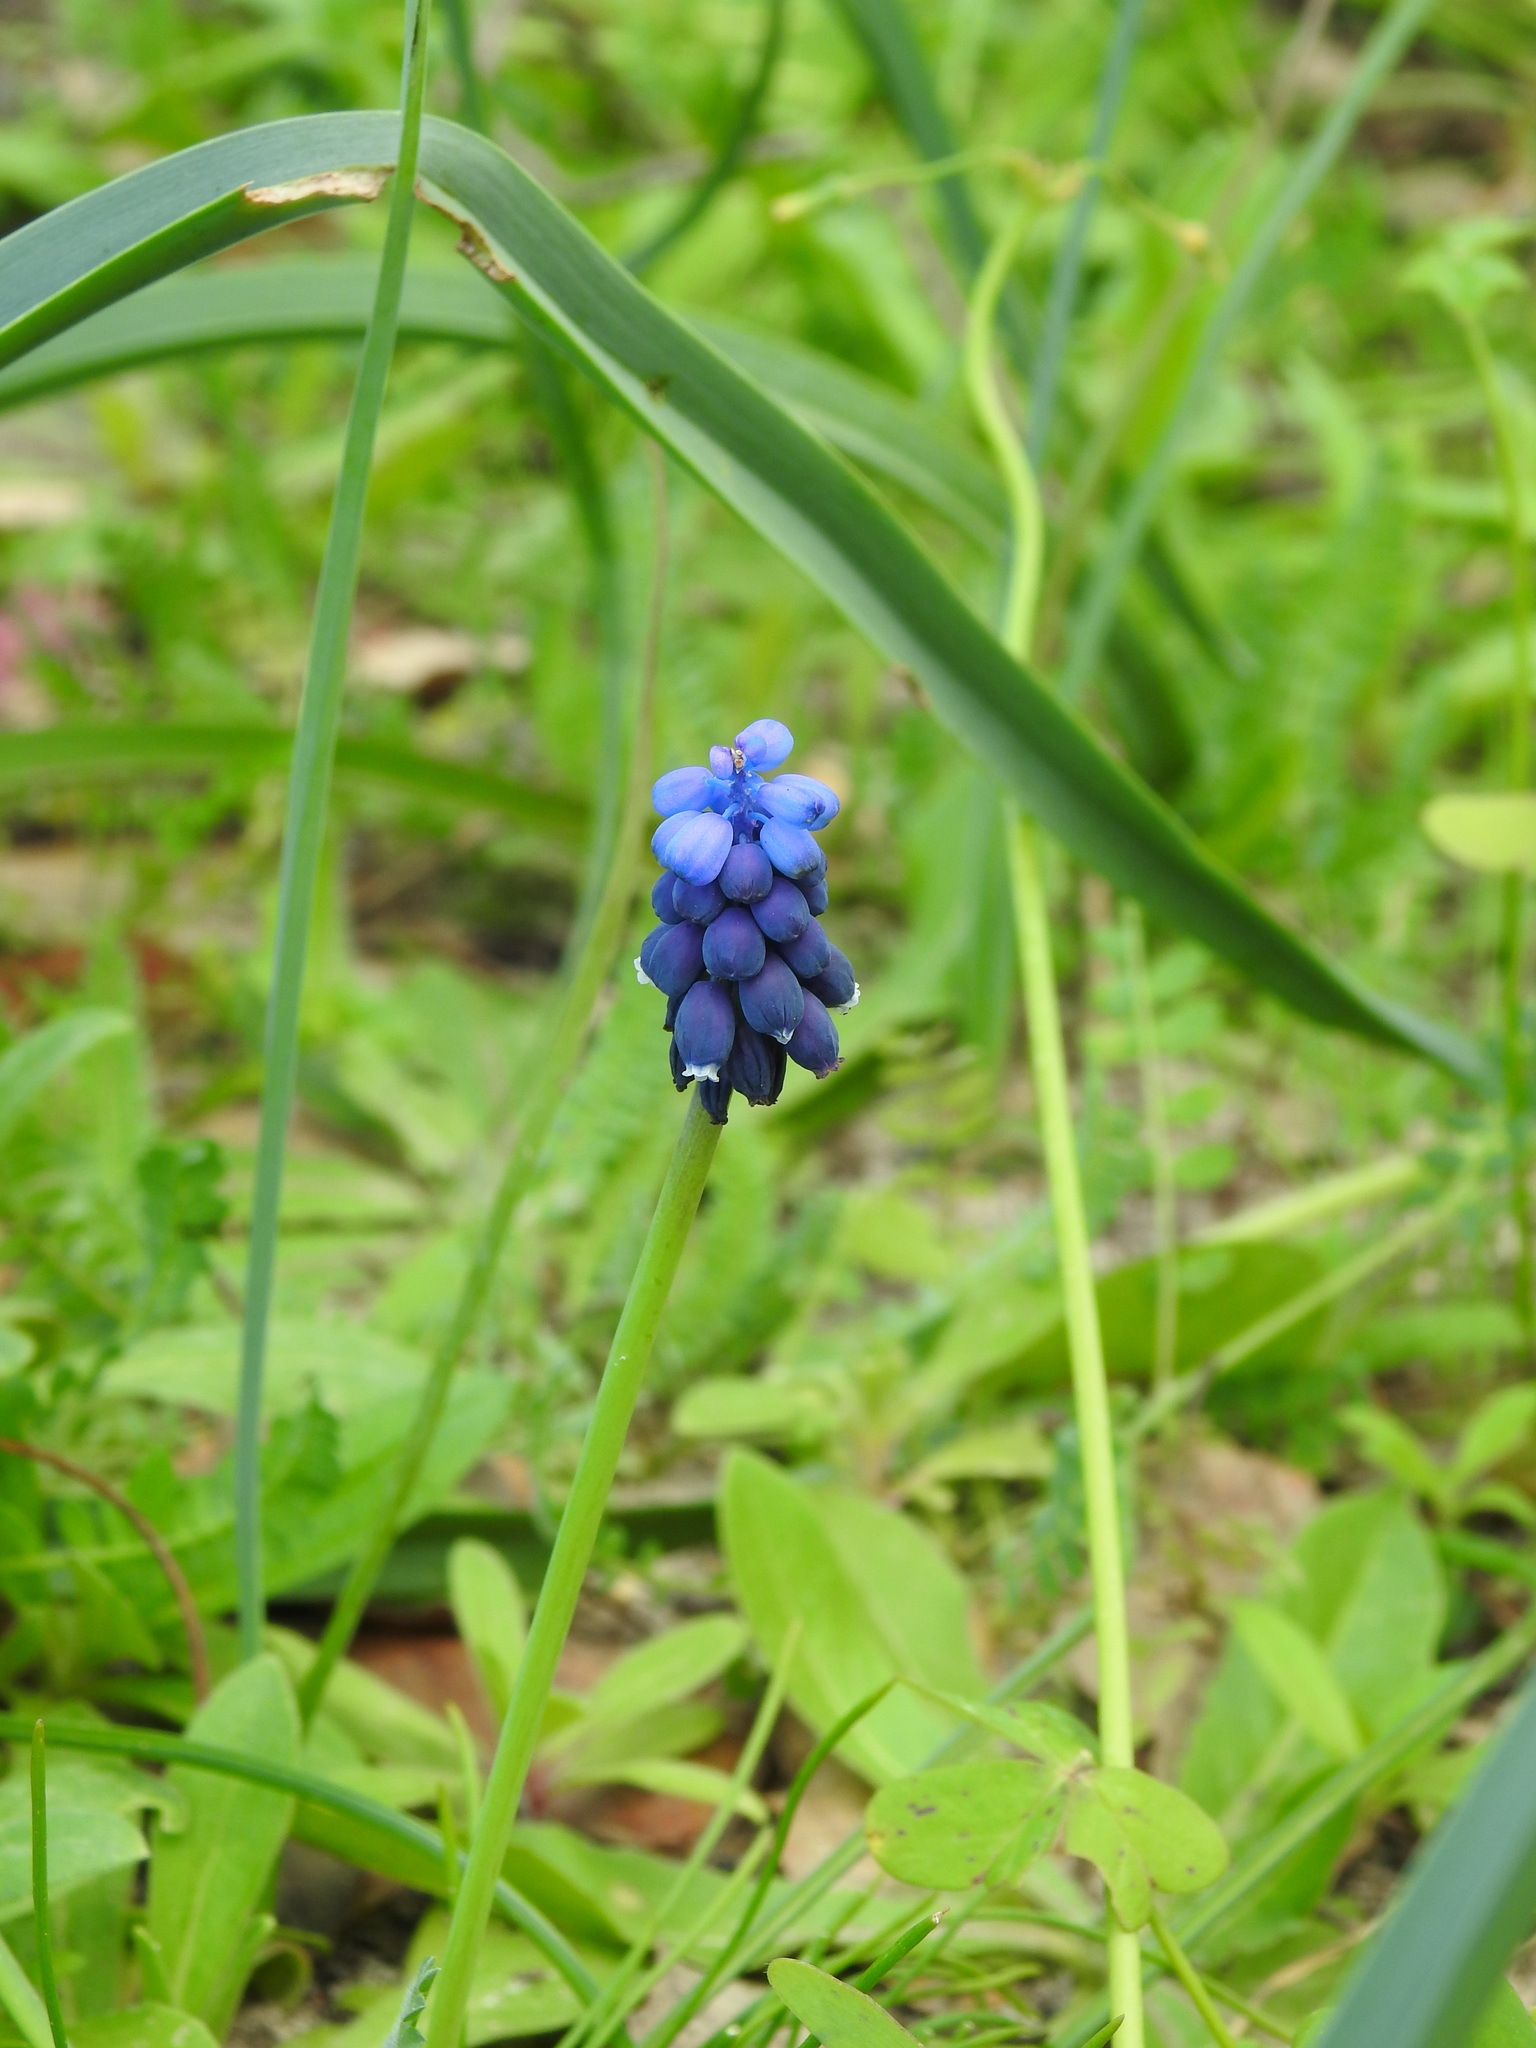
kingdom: Plantae
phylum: Tracheophyta
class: Liliopsida
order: Asparagales
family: Asparagaceae
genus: Muscari
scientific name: Muscari neglectum
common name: Grape-hyacinth
